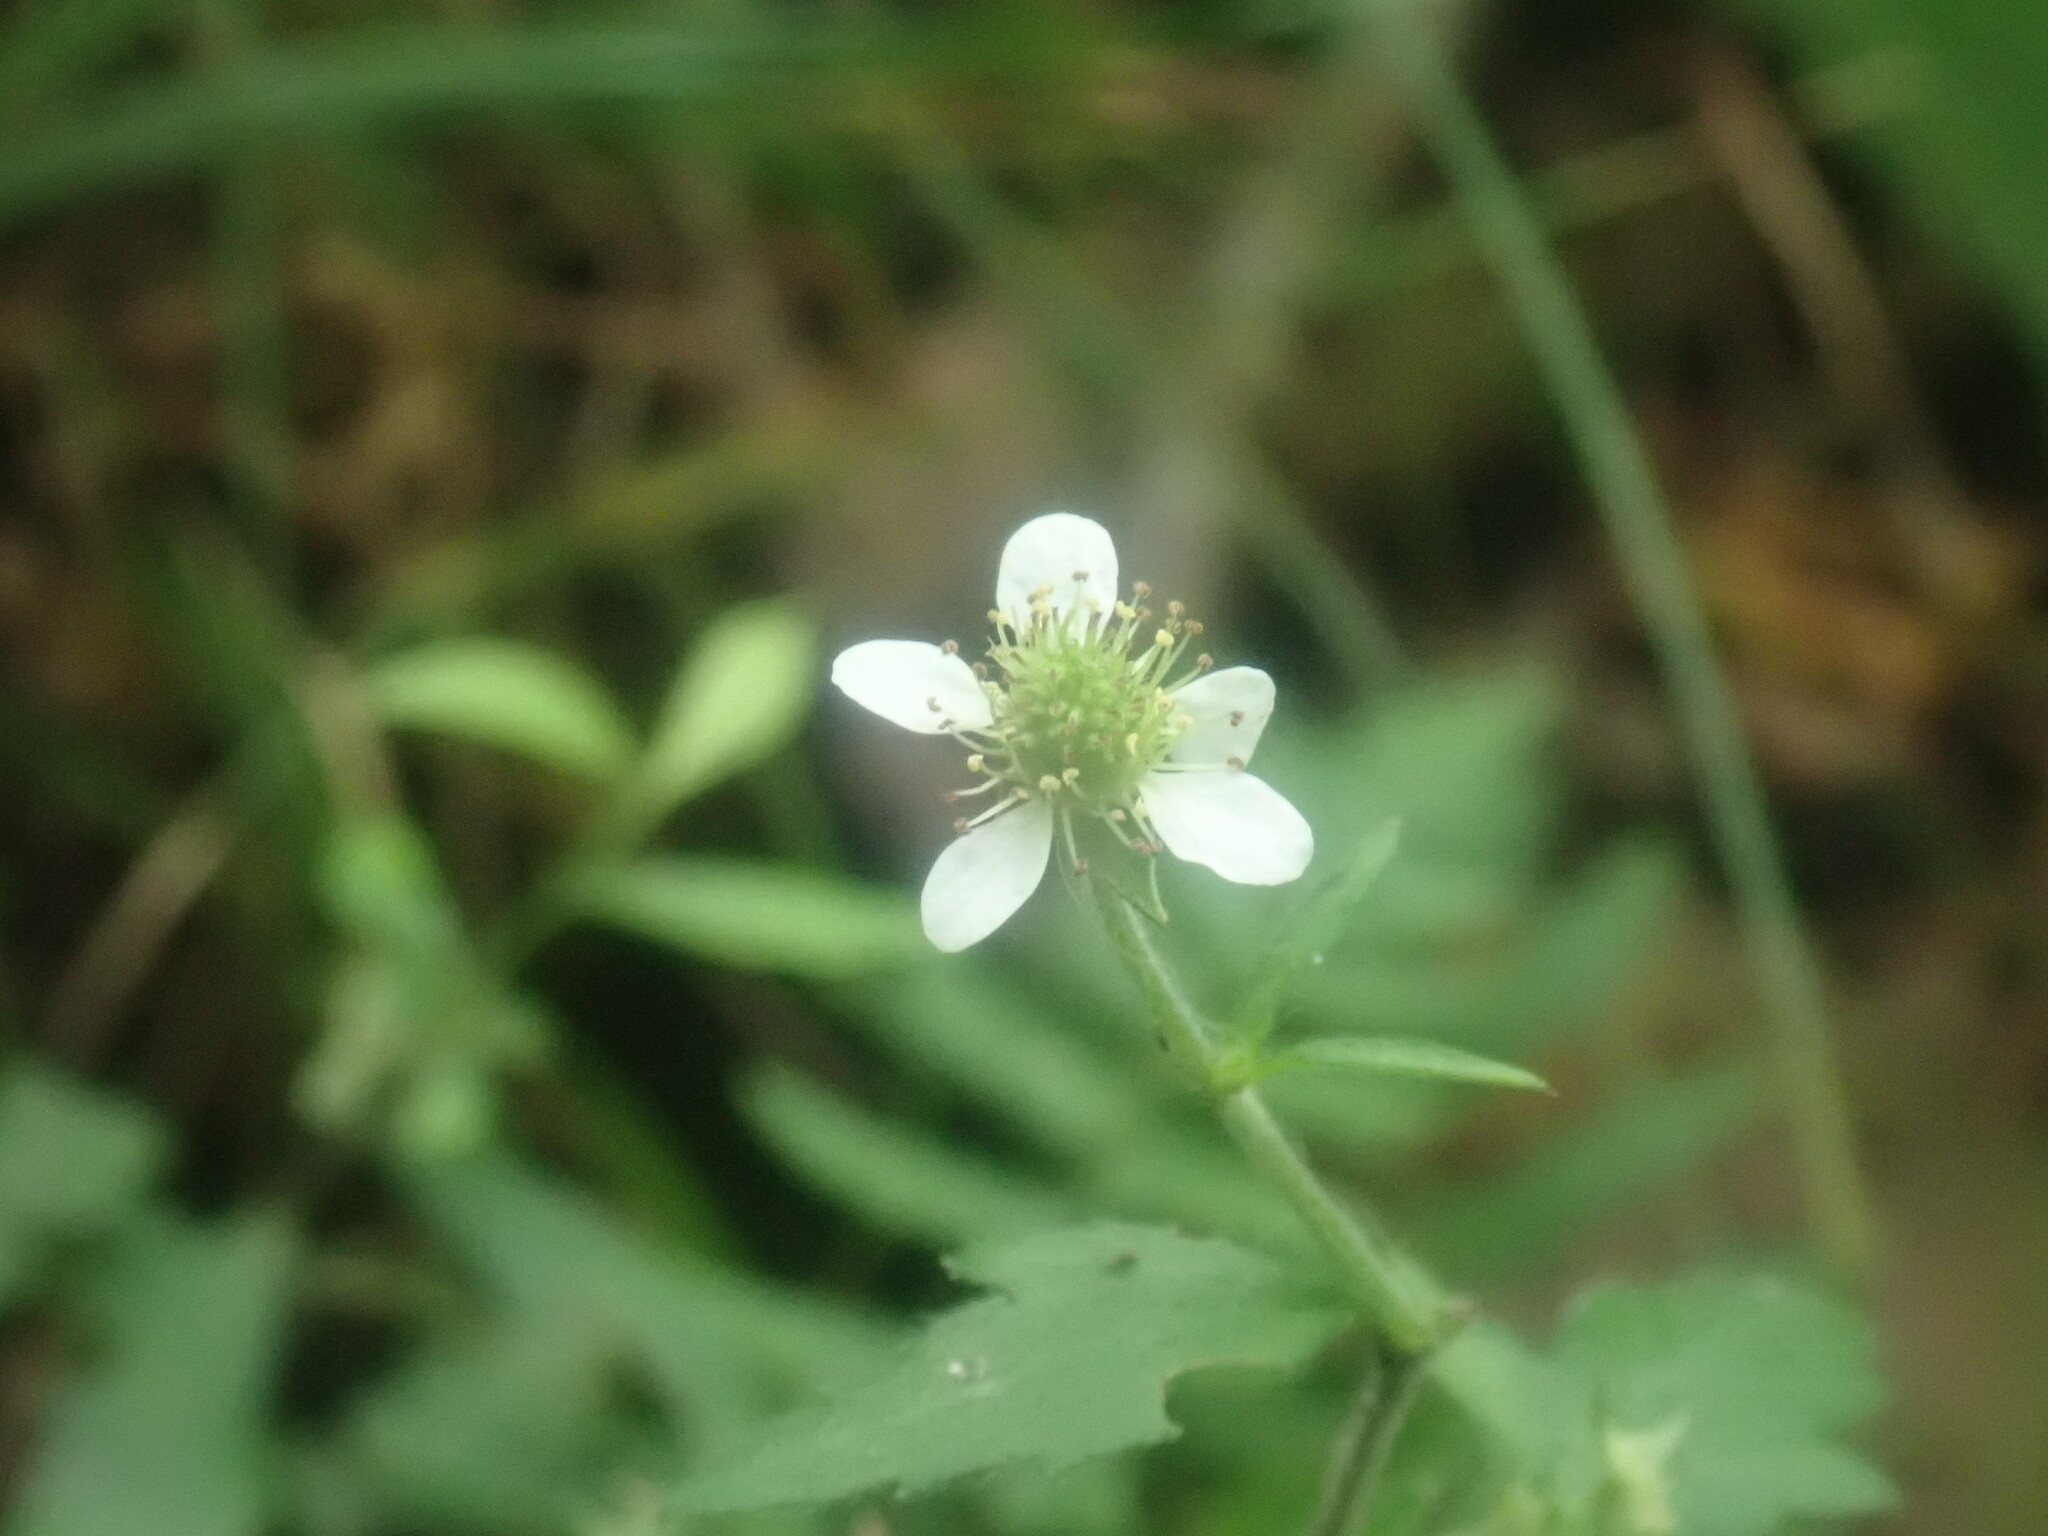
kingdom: Plantae
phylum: Tracheophyta
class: Magnoliopsida
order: Rosales
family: Rosaceae
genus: Geum
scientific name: Geum canadense
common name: White avens
